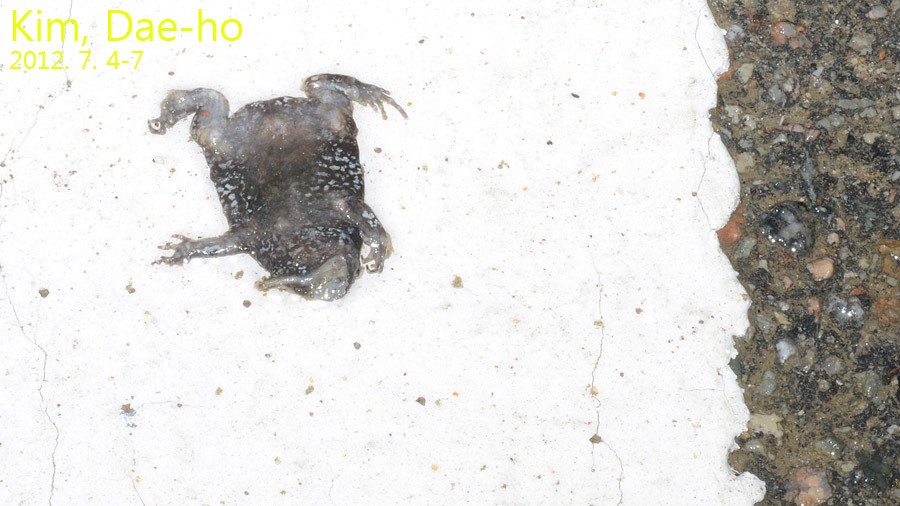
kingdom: Animalia
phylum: Chordata
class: Amphibia
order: Anura
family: Microhylidae
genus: Kaloula
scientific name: Kaloula borealis
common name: Boreal digging frog
